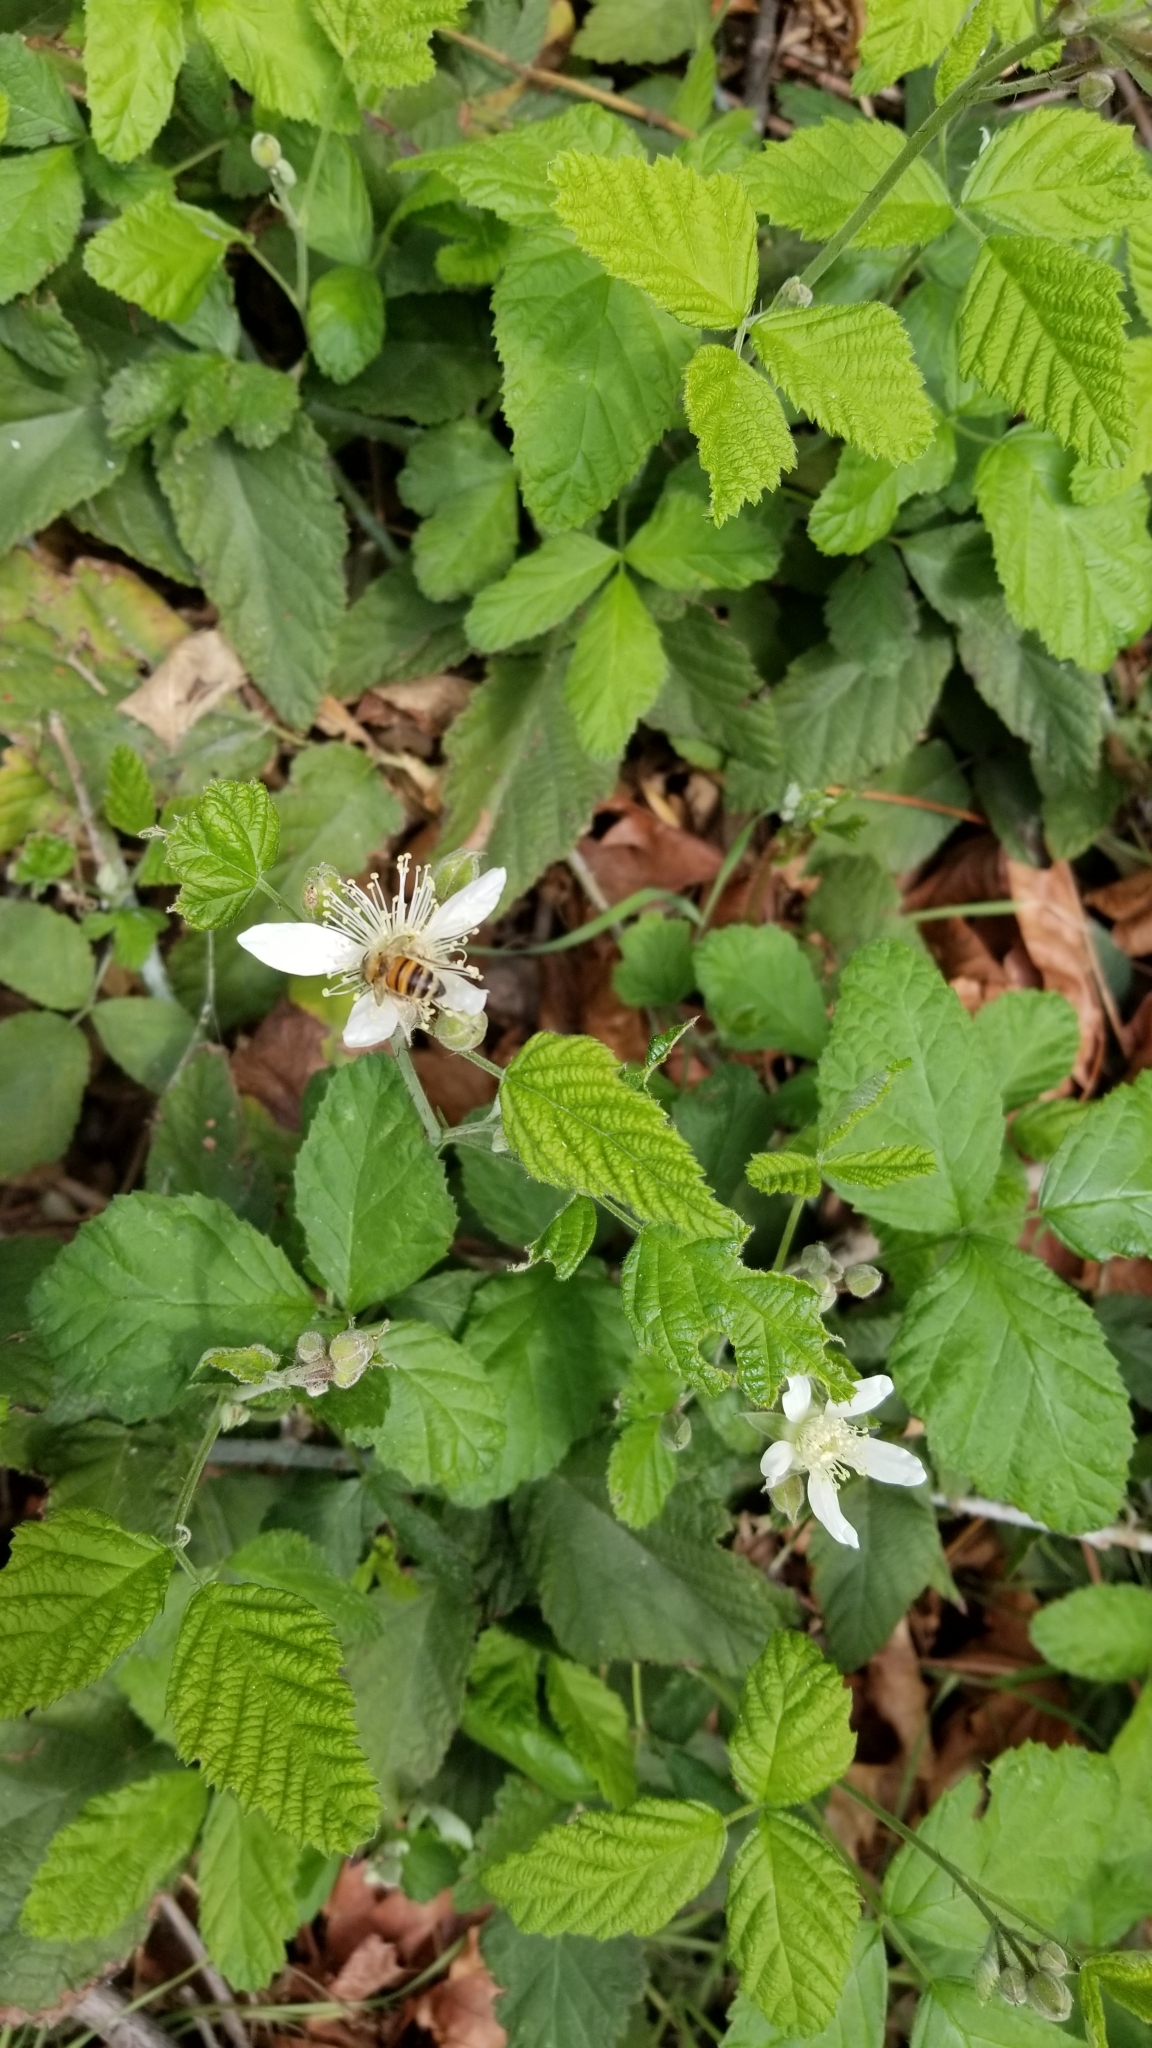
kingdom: Plantae
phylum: Tracheophyta
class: Magnoliopsida
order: Rosales
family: Rosaceae
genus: Rubus
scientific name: Rubus ursinus
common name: Pacific blackberry
